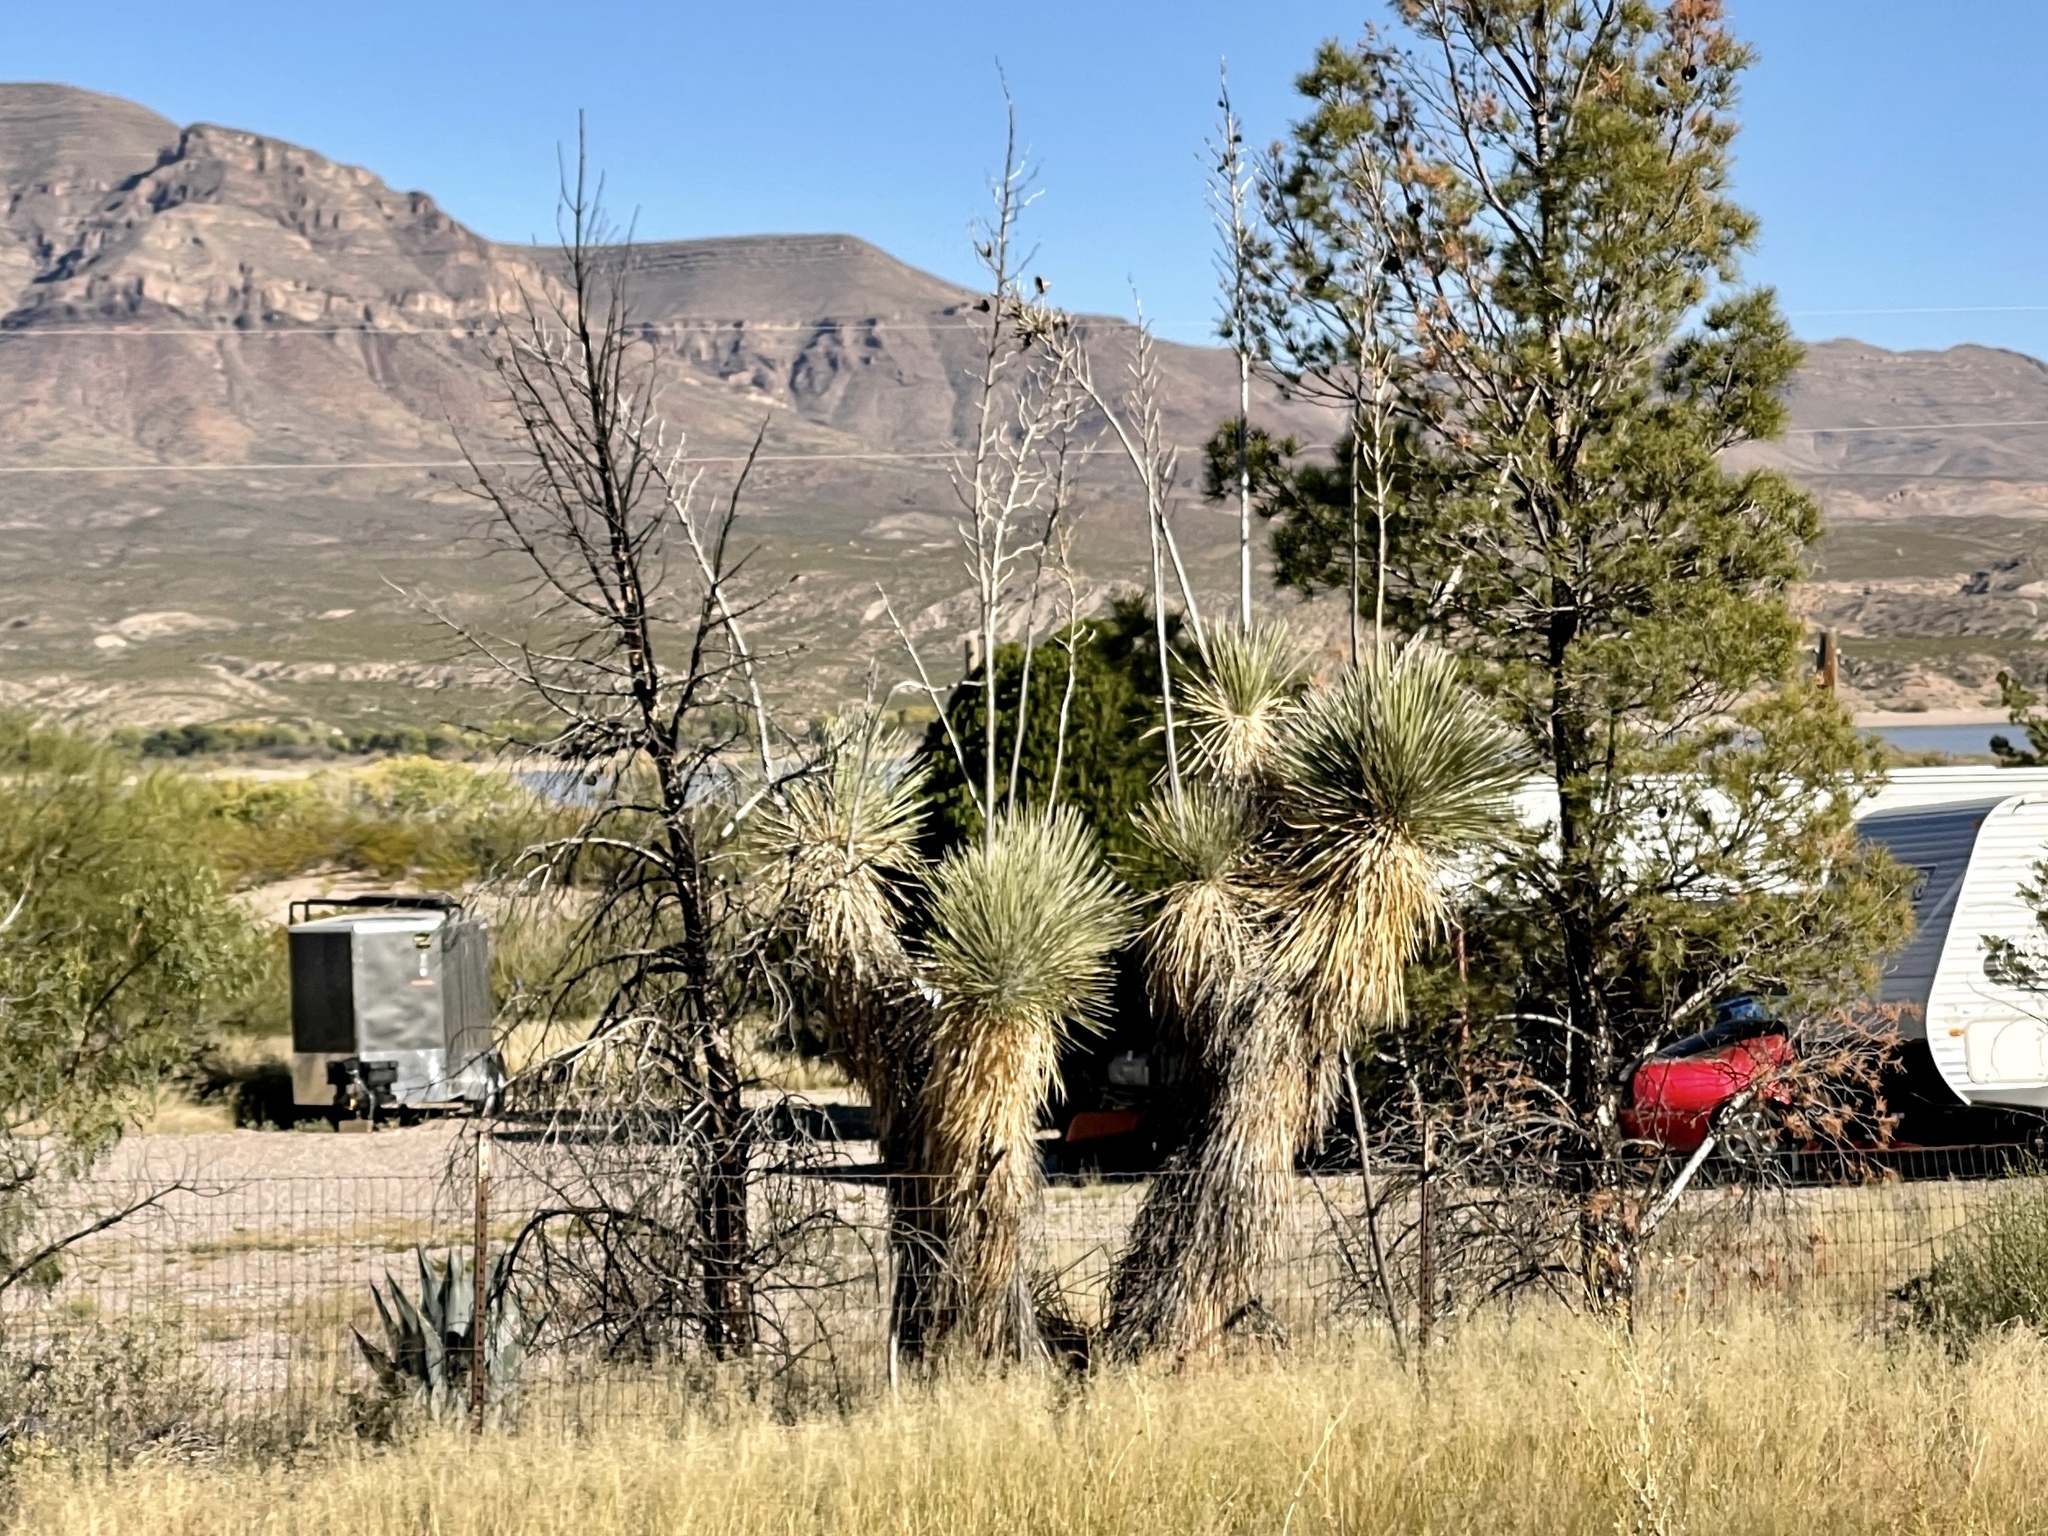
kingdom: Plantae
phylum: Tracheophyta
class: Liliopsida
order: Asparagales
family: Asparagaceae
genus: Yucca
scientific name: Yucca elata
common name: Palmella
